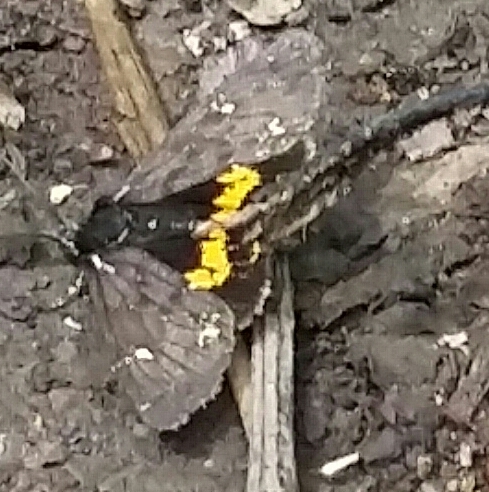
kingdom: Animalia
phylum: Arthropoda
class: Insecta
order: Lepidoptera
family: Erebidae
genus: Leptarctia
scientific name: Leptarctia californiae
